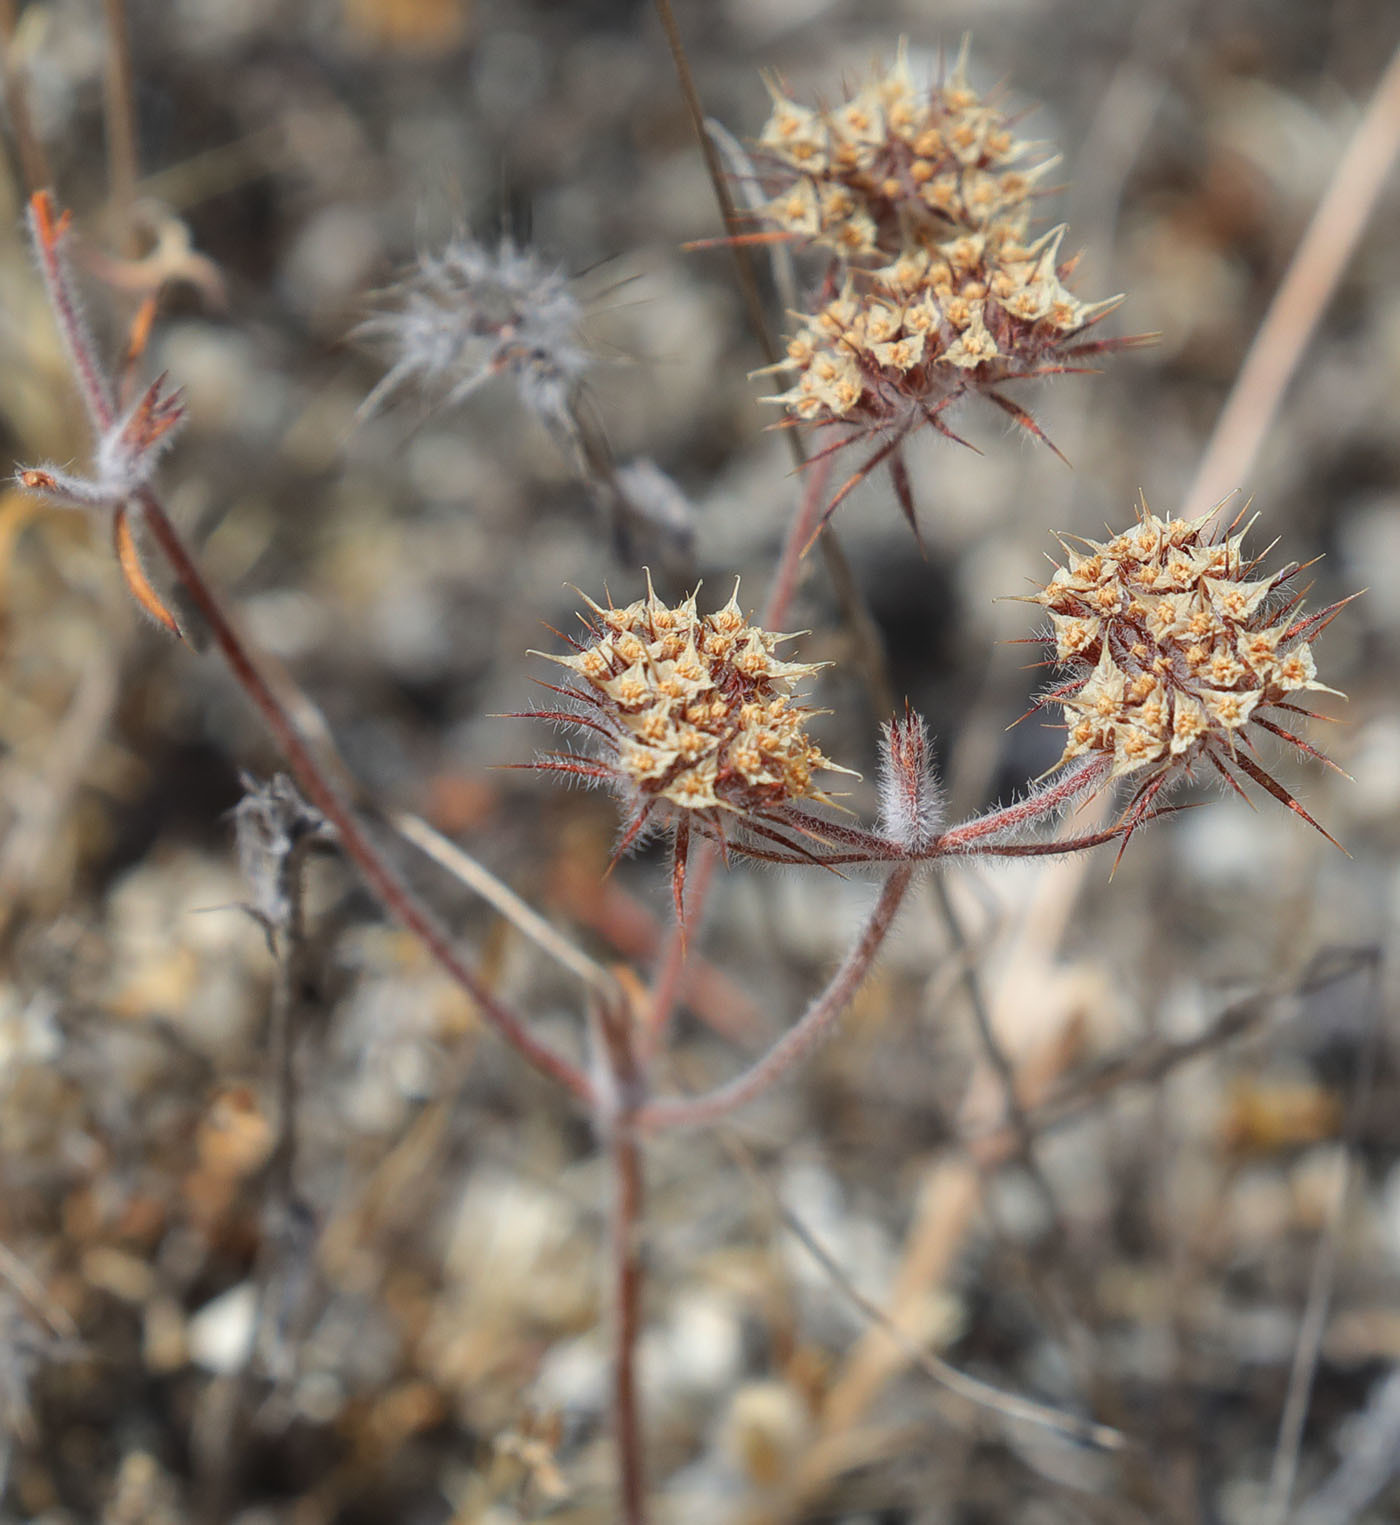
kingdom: Plantae
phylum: Tracheophyta
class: Magnoliopsida
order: Caryophyllales
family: Polygonaceae
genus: Chorizanthe
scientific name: Chorizanthe douglasii
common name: Douglas's spineflower
